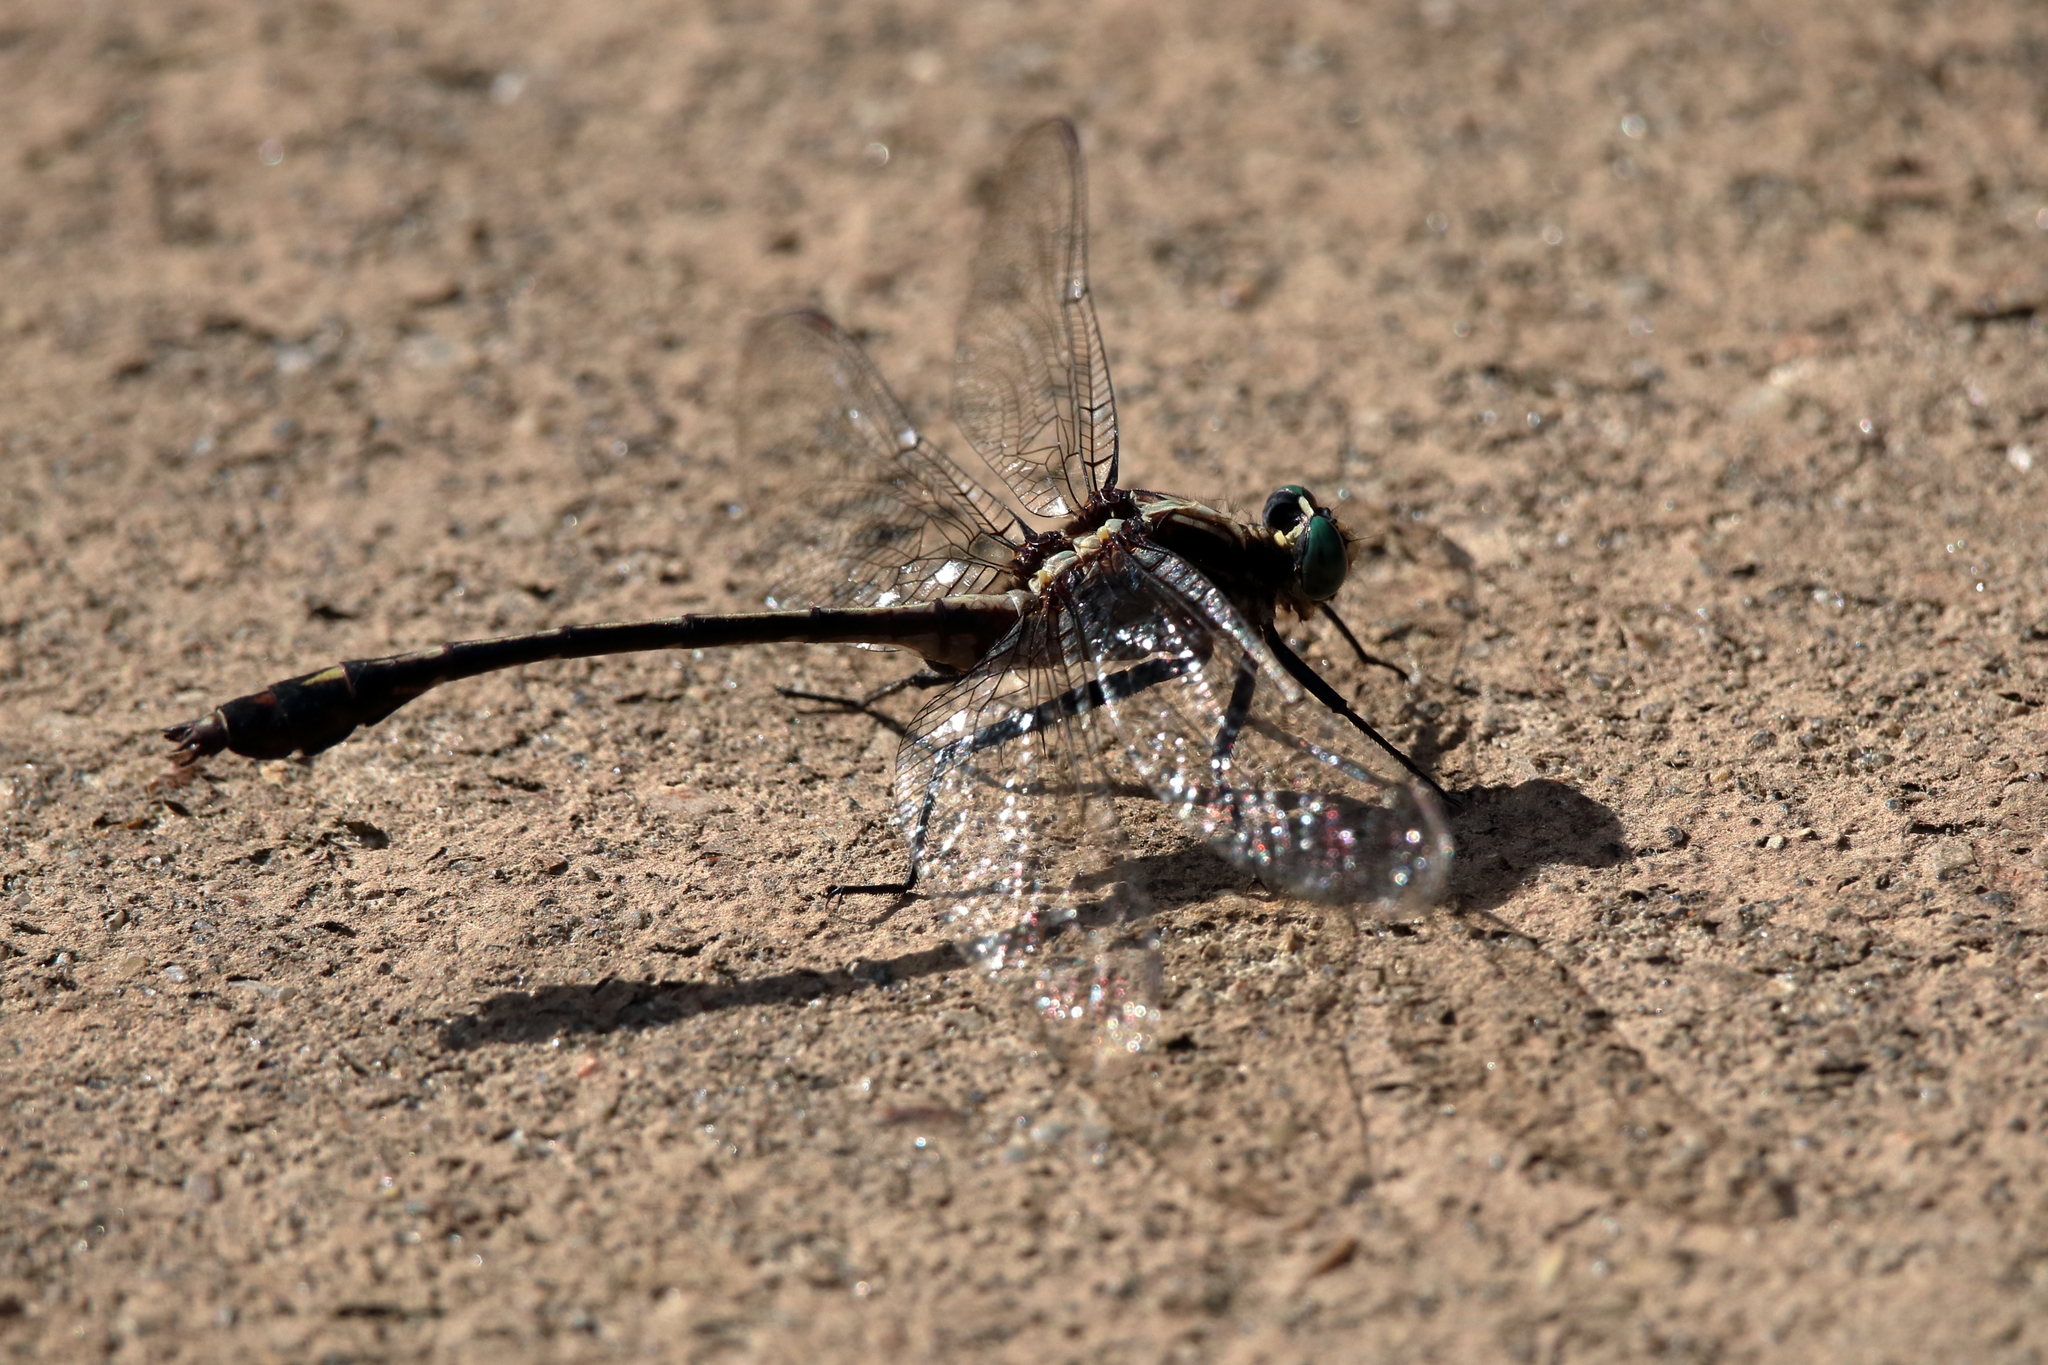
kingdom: Animalia
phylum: Arthropoda
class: Insecta
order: Odonata
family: Gomphidae
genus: Dromogomphus
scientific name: Dromogomphus spinosus
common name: Black-shouldered spinyleg
